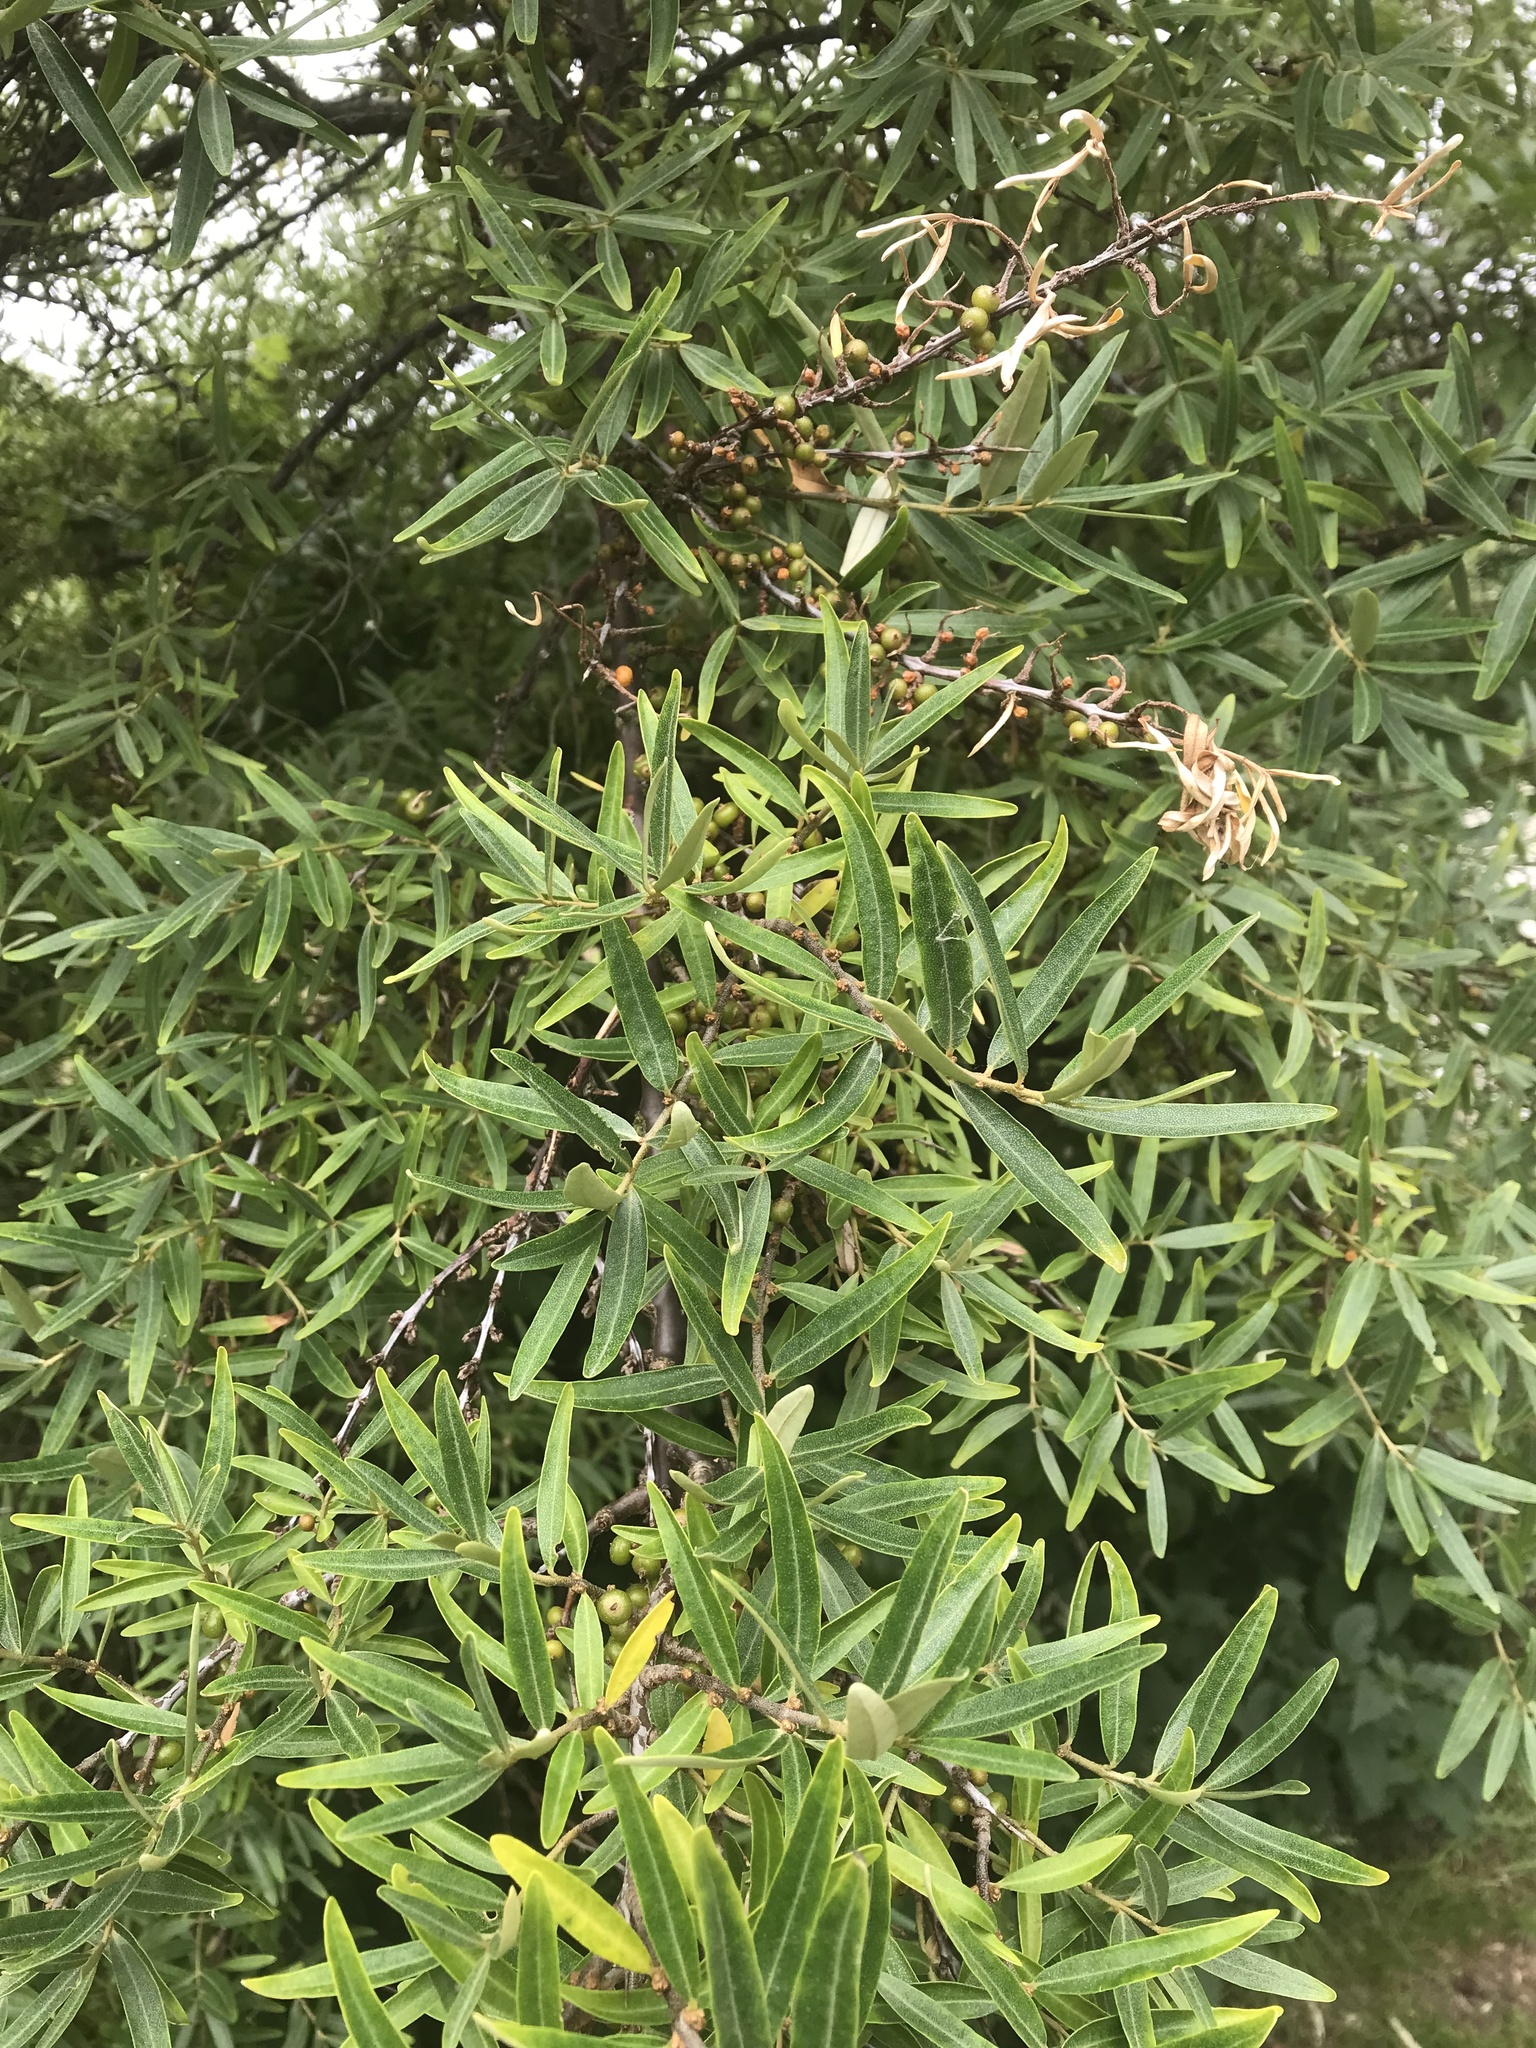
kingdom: Plantae
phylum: Tracheophyta
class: Magnoliopsida
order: Rosales
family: Elaeagnaceae
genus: Hippophae
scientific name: Hippophae rhamnoides
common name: Sea-buckthorn
